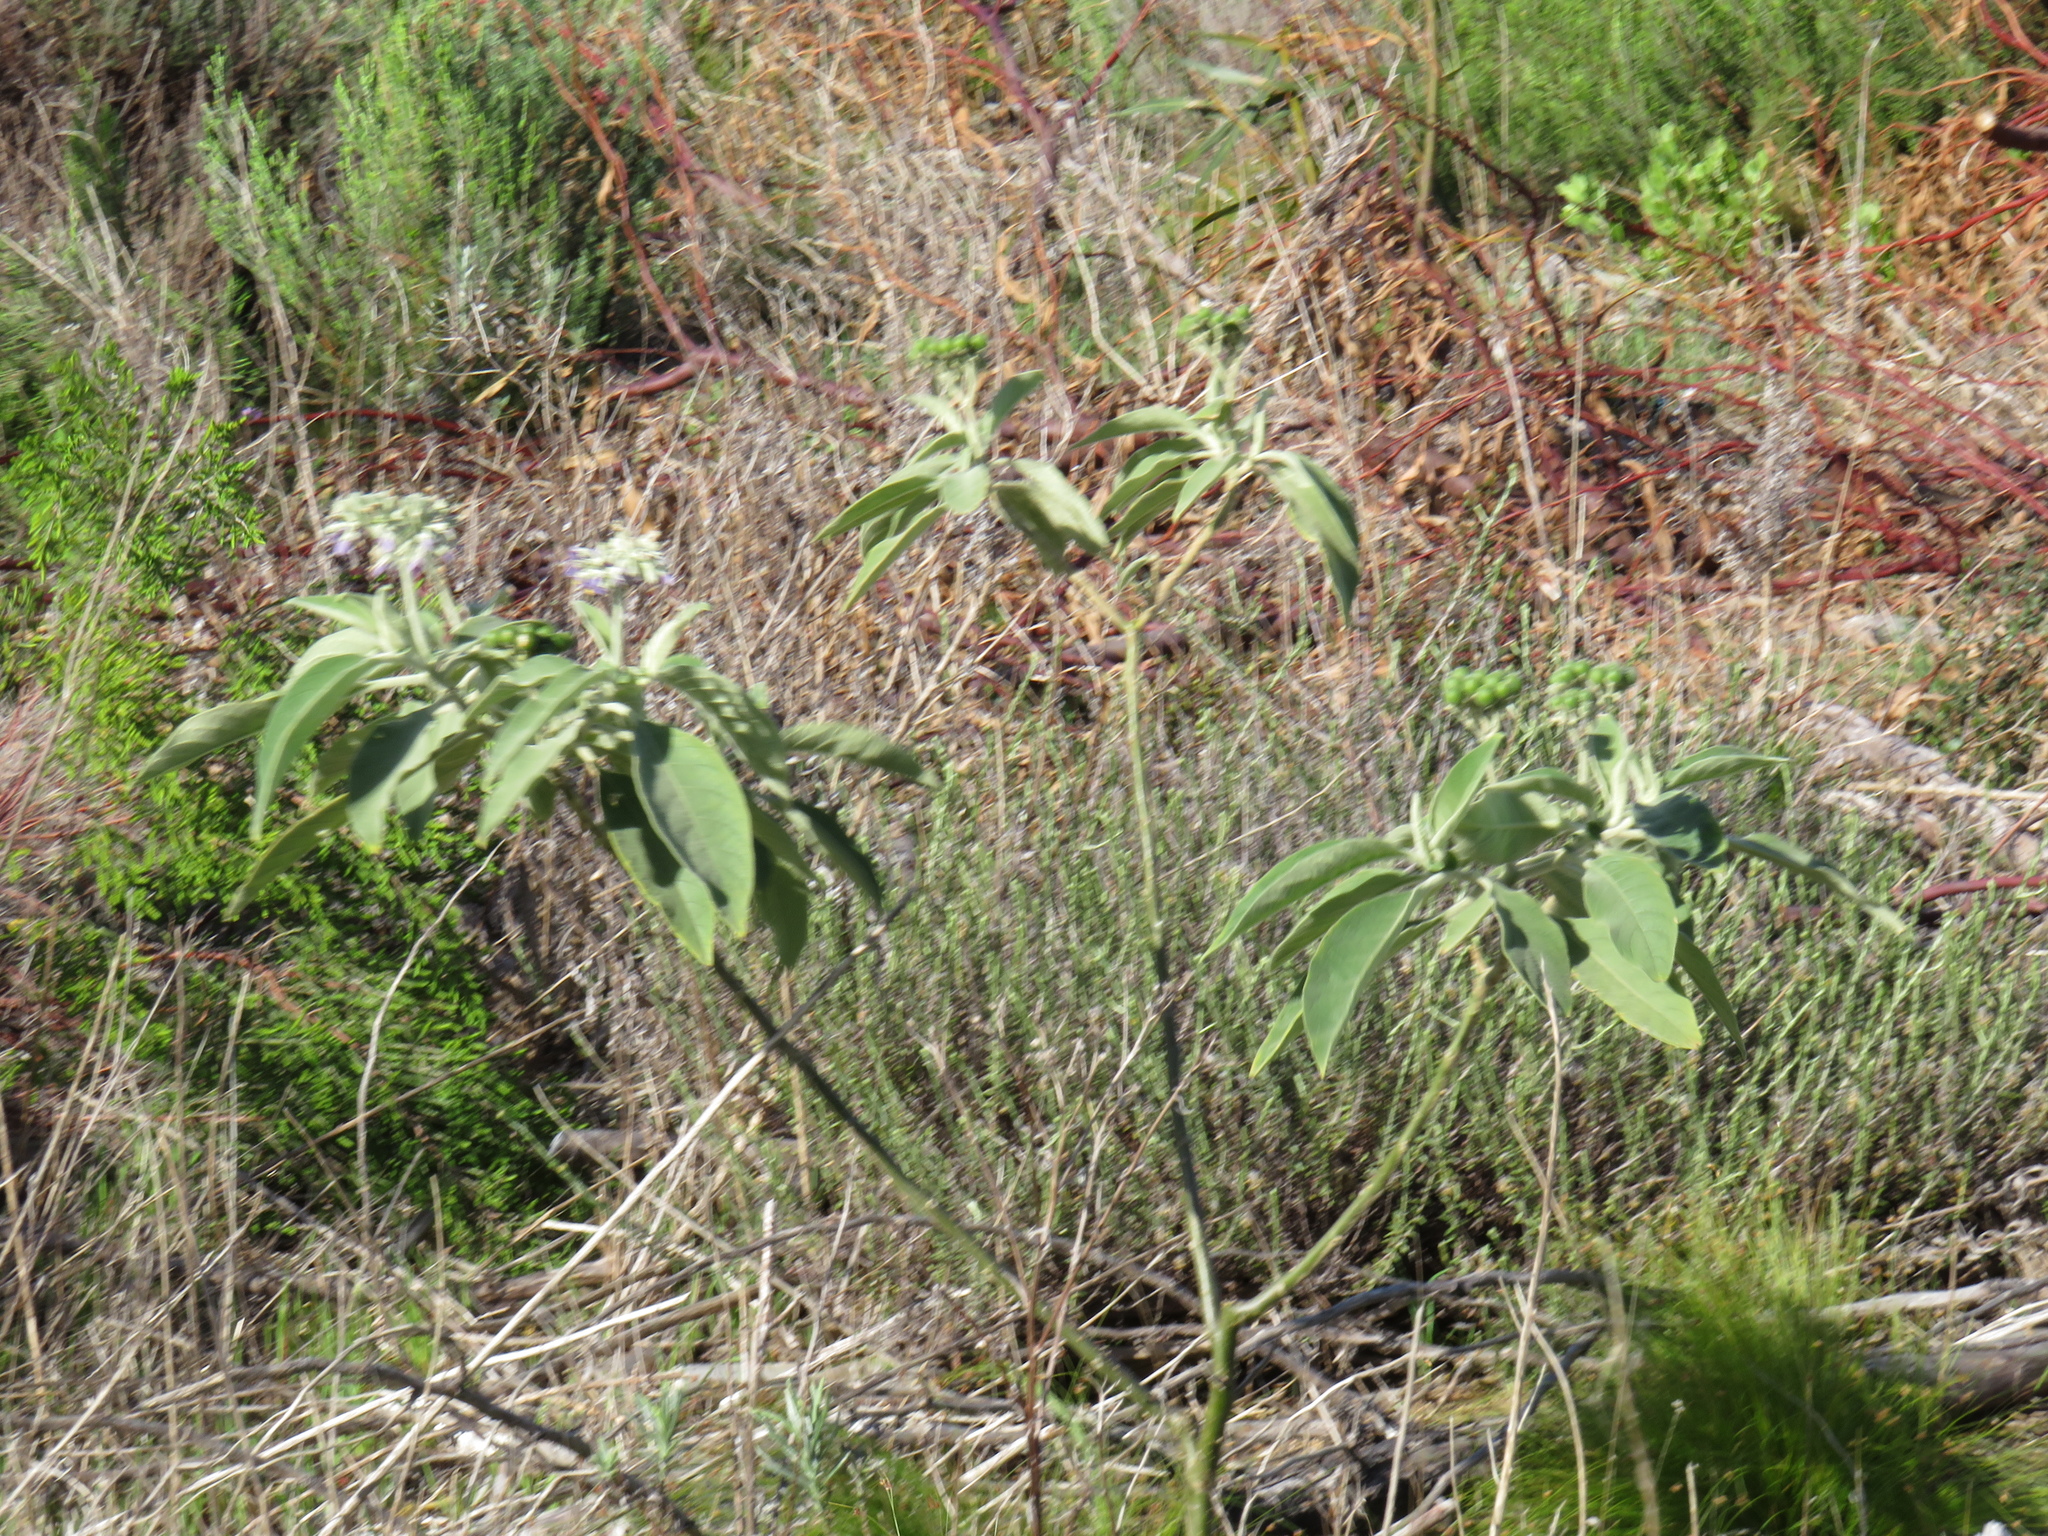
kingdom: Plantae
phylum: Tracheophyta
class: Magnoliopsida
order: Solanales
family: Solanaceae
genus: Solanum
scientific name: Solanum mauritianum
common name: Earleaf nightshade
